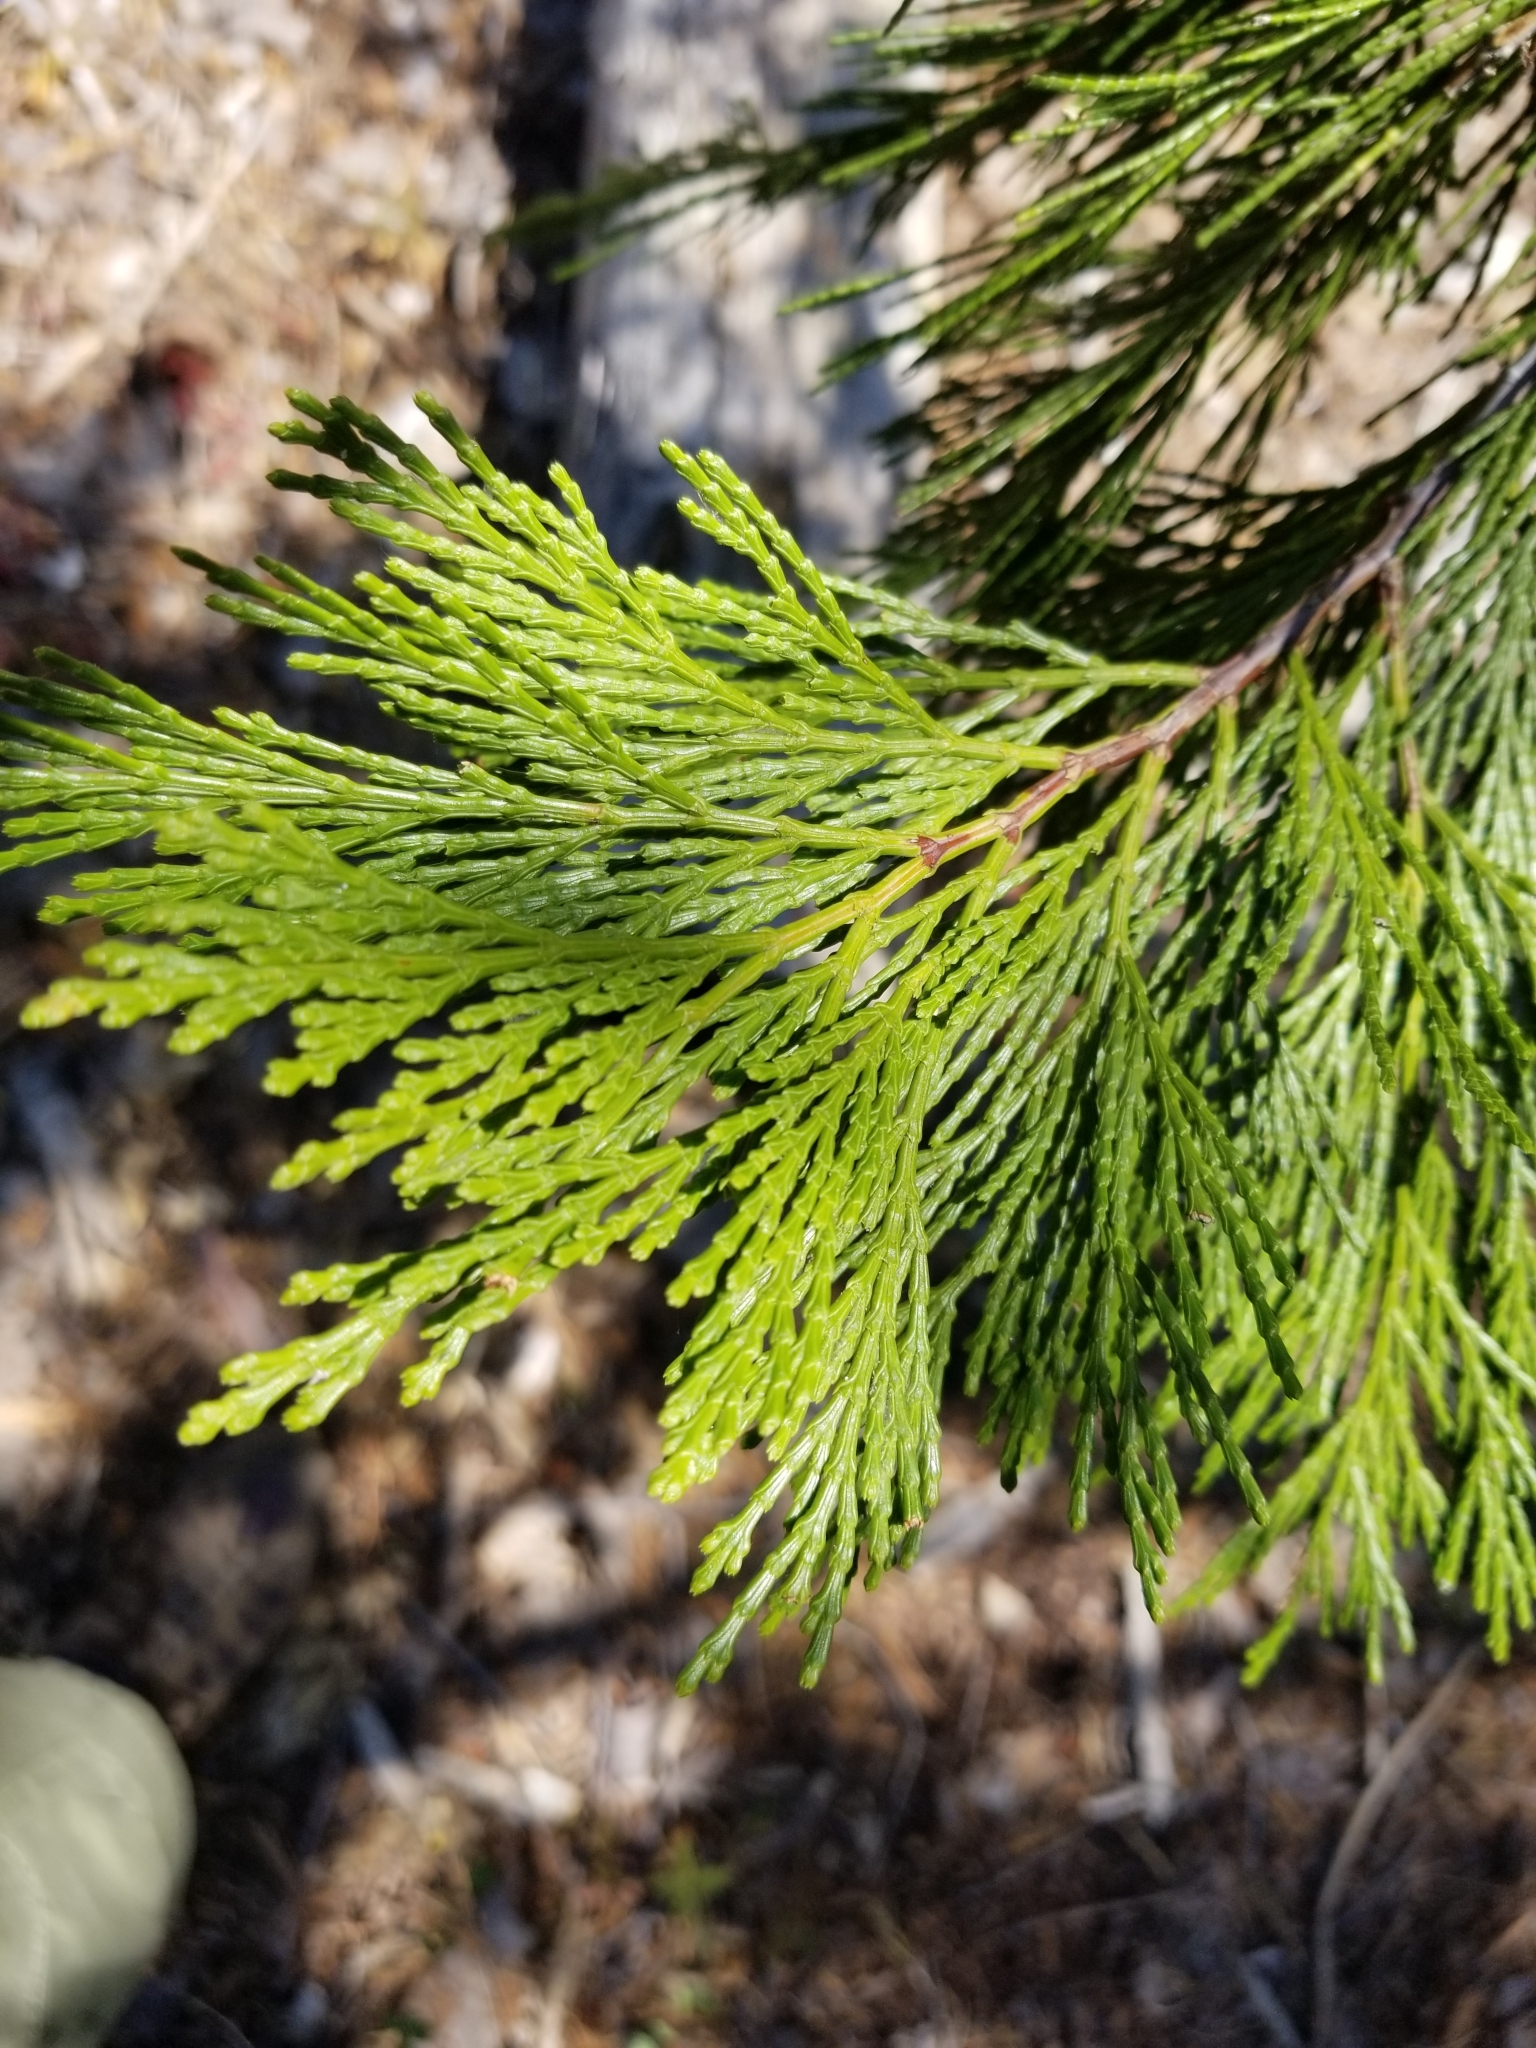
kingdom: Plantae
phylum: Tracheophyta
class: Pinopsida
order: Pinales
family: Cupressaceae
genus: Calocedrus
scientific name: Calocedrus decurrens
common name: Californian incense-cedar
